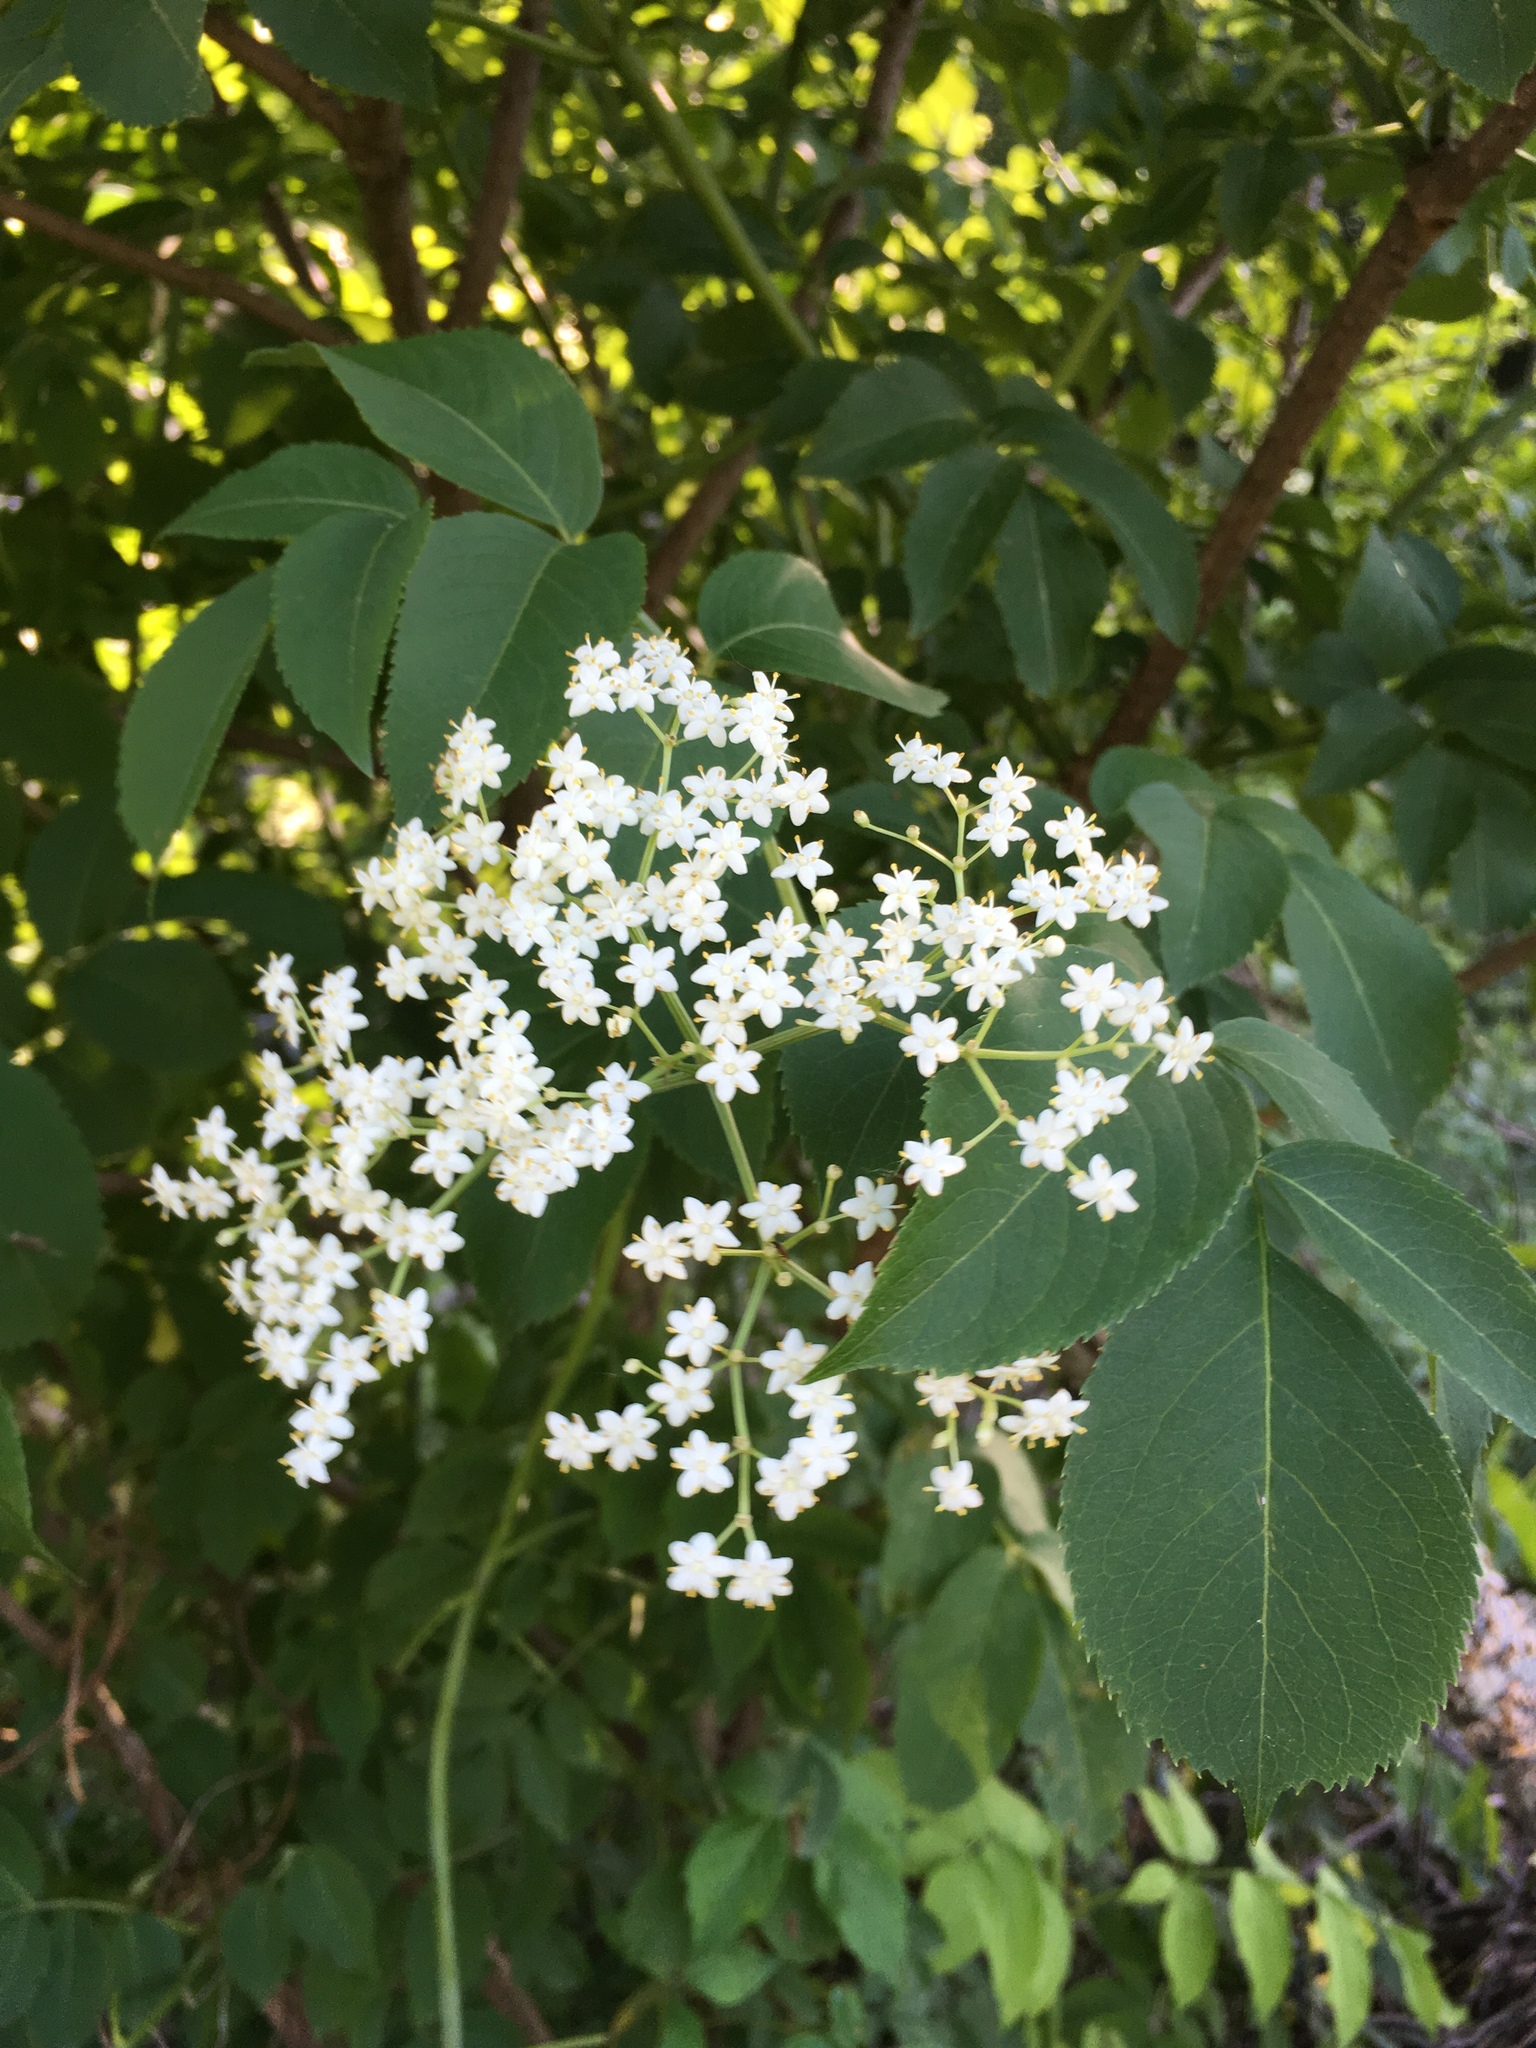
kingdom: Plantae
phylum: Tracheophyta
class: Magnoliopsida
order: Dipsacales
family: Viburnaceae
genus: Sambucus
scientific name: Sambucus canadensis
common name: American elder
